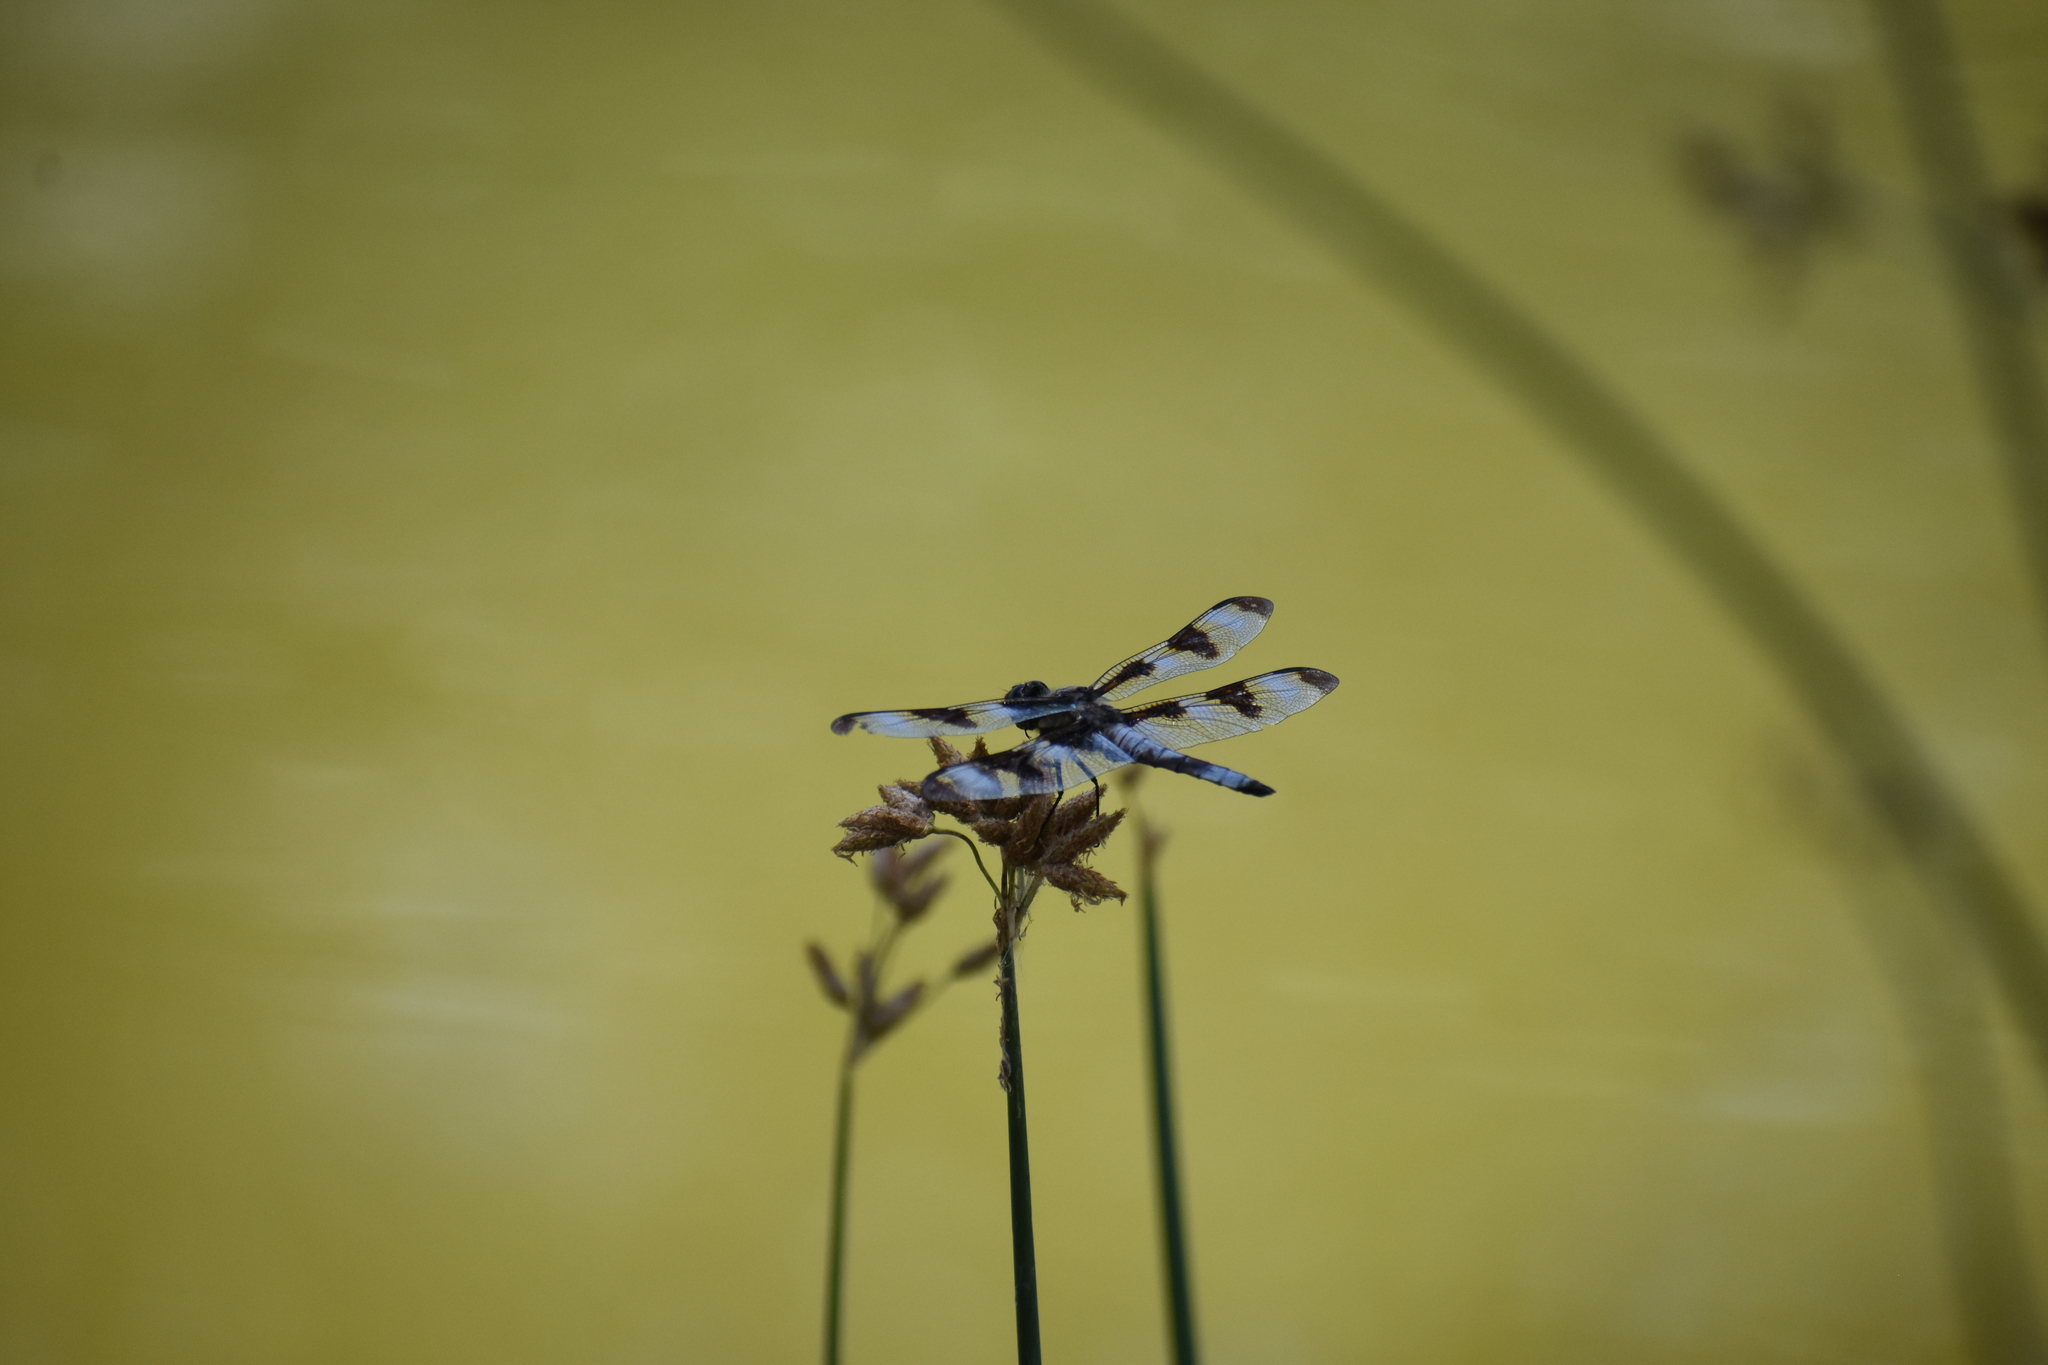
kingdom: Animalia
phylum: Arthropoda
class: Insecta
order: Odonata
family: Libellulidae
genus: Libellula
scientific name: Libellula pulchella
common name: Twelve-spotted skimmer
